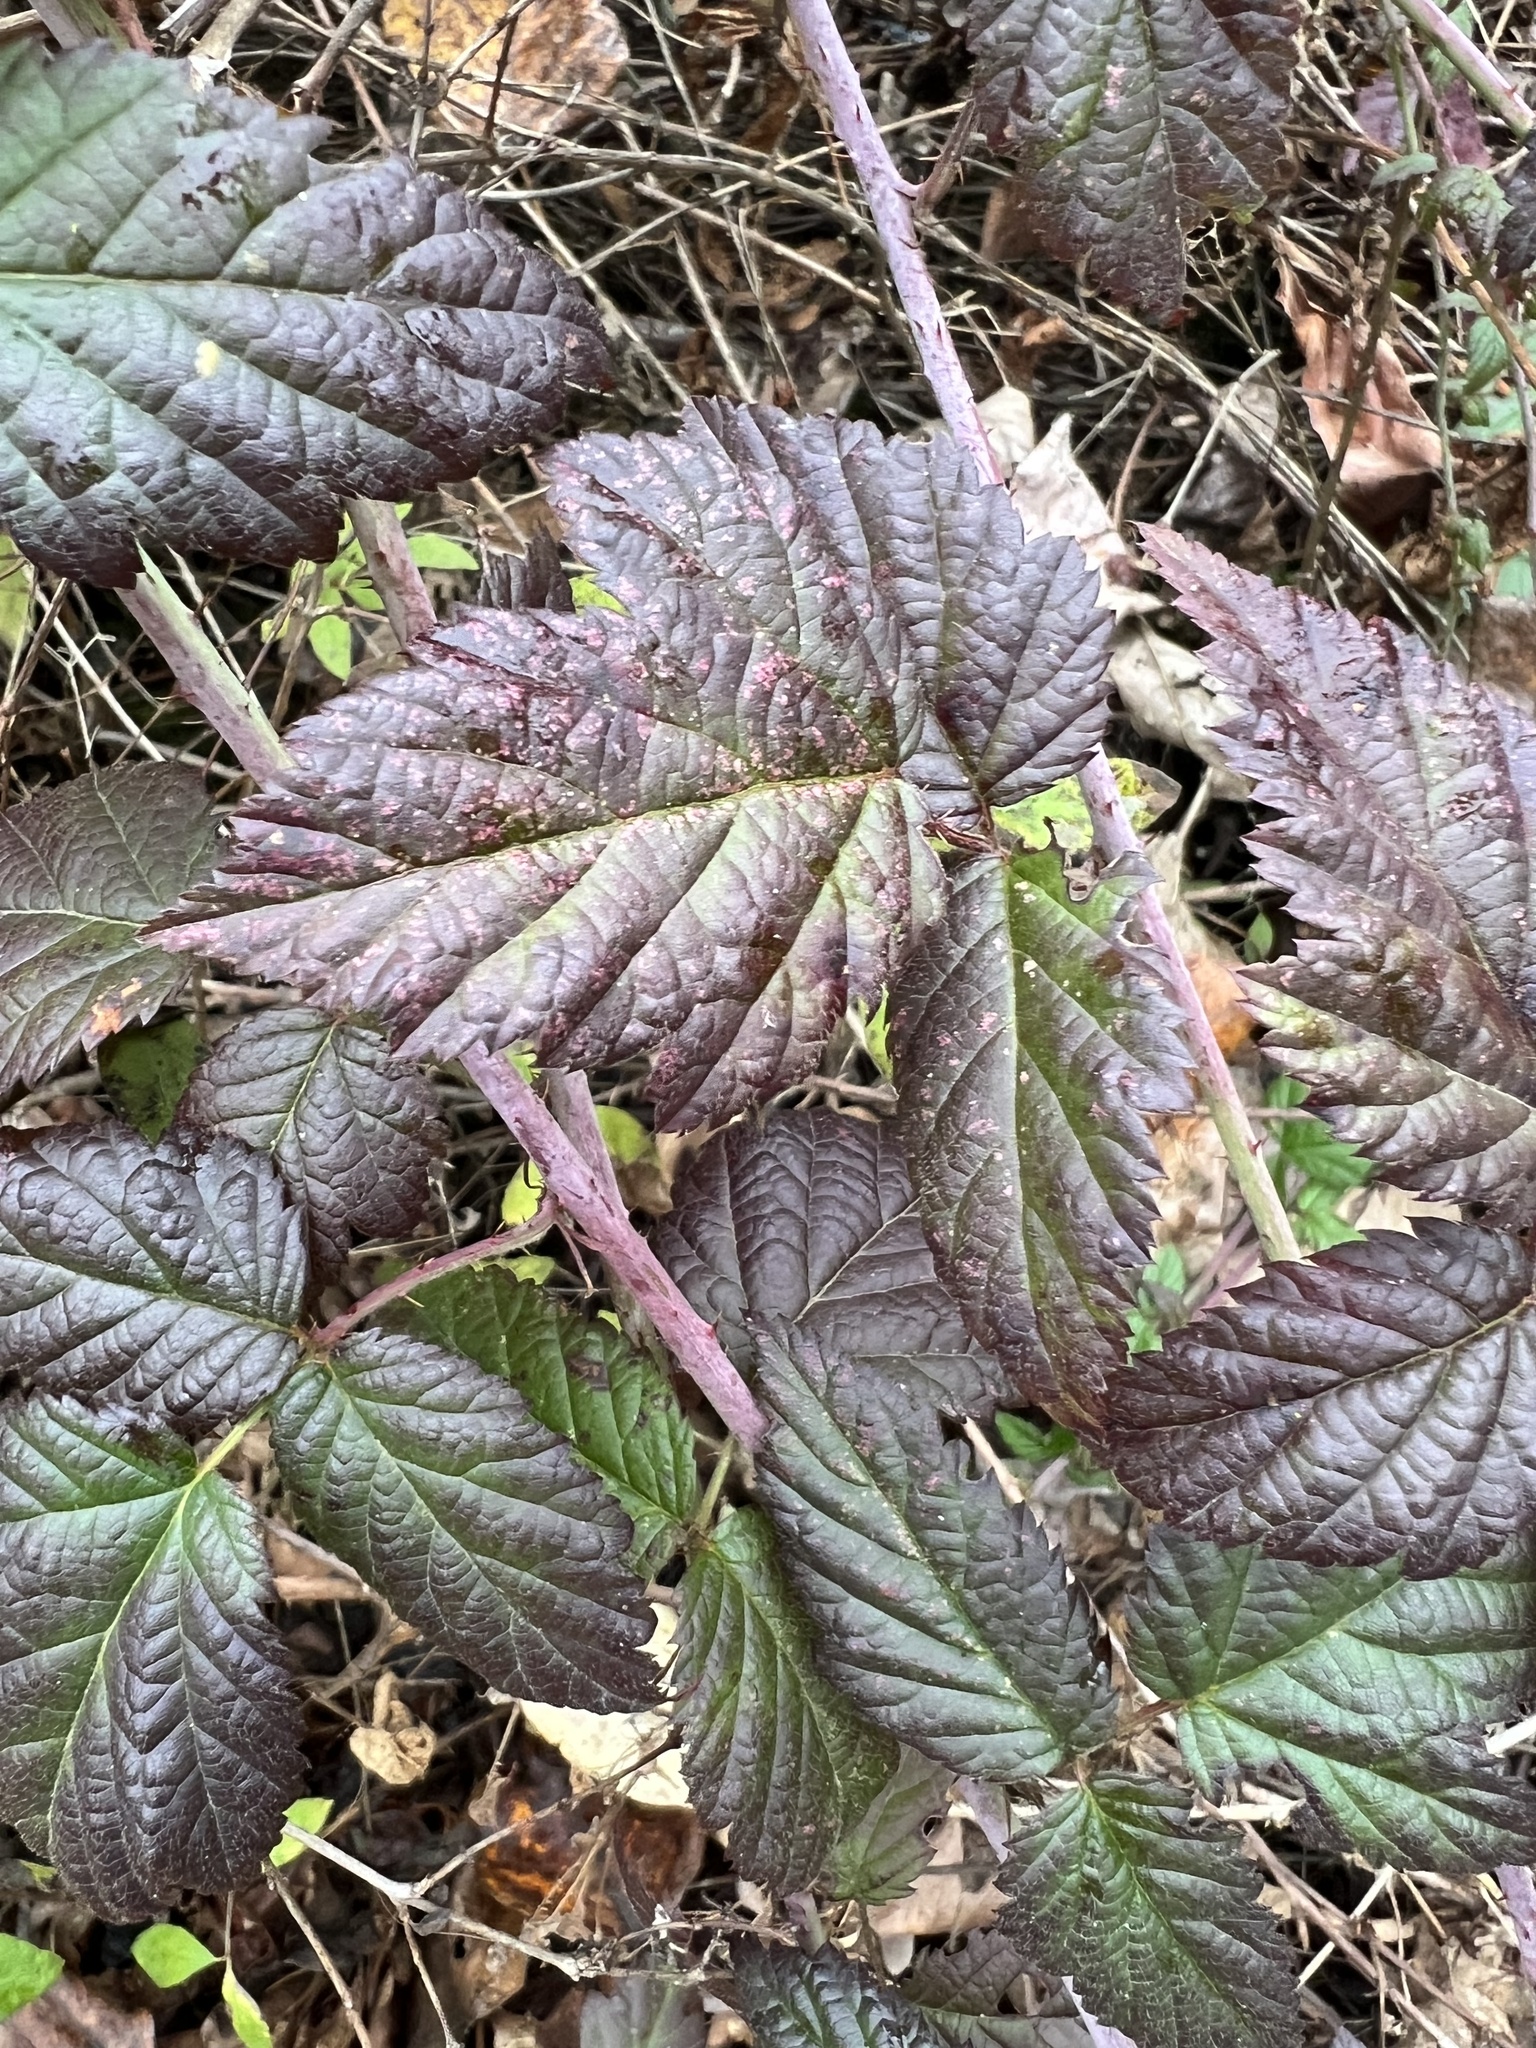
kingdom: Plantae
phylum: Tracheophyta
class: Magnoliopsida
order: Rosales
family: Rosaceae
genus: Rubus
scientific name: Rubus ursinus
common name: Pacific blackberry
